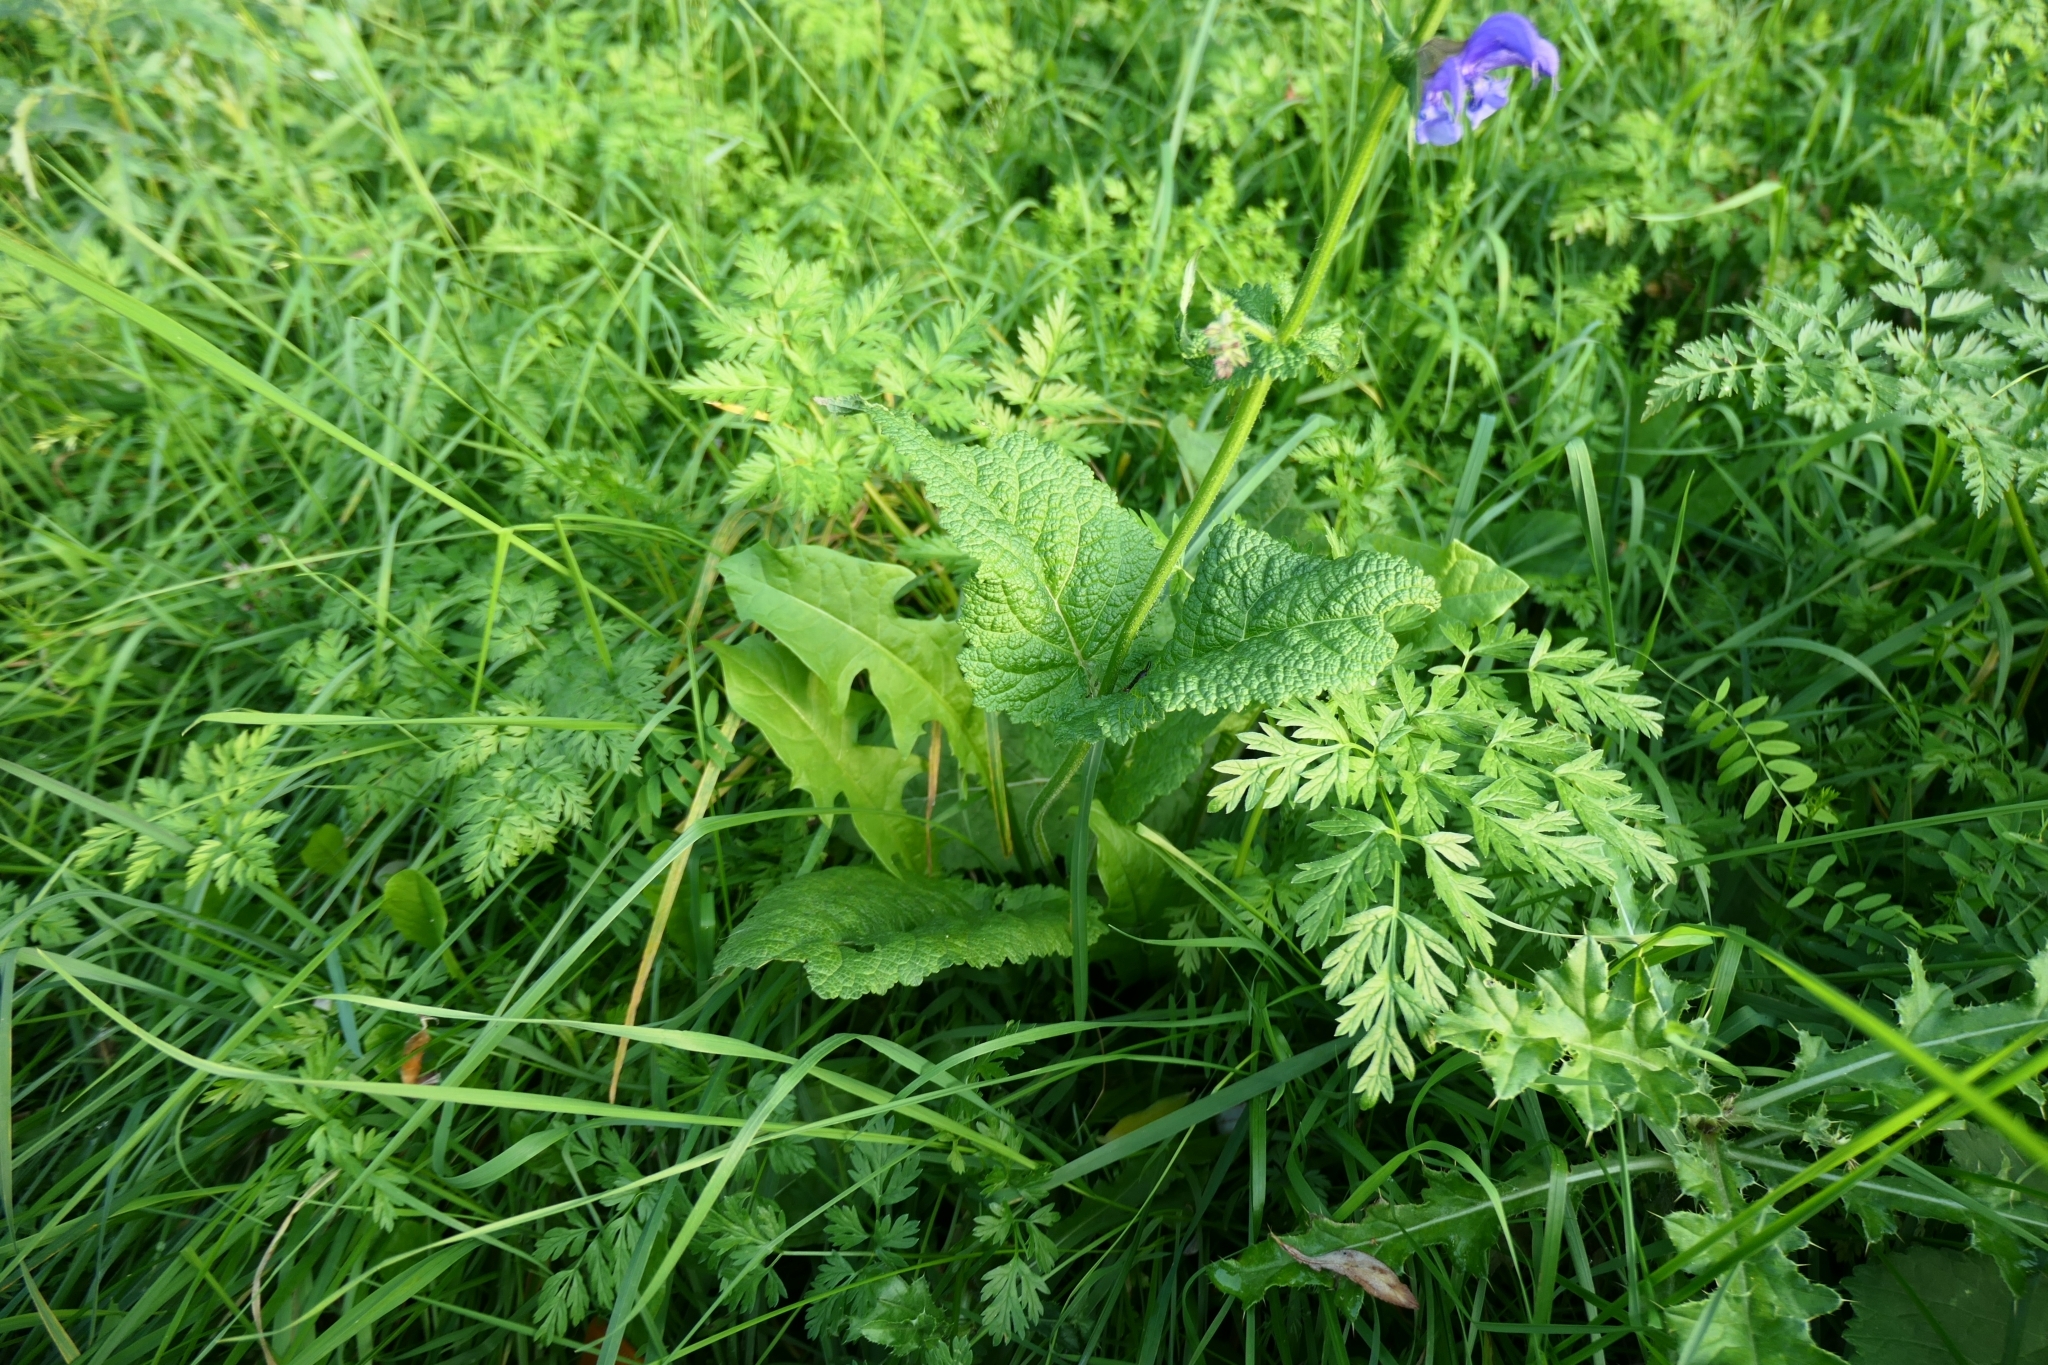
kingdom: Plantae
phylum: Tracheophyta
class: Magnoliopsida
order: Lamiales
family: Lamiaceae
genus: Salvia
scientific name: Salvia pratensis
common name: Meadow sage
